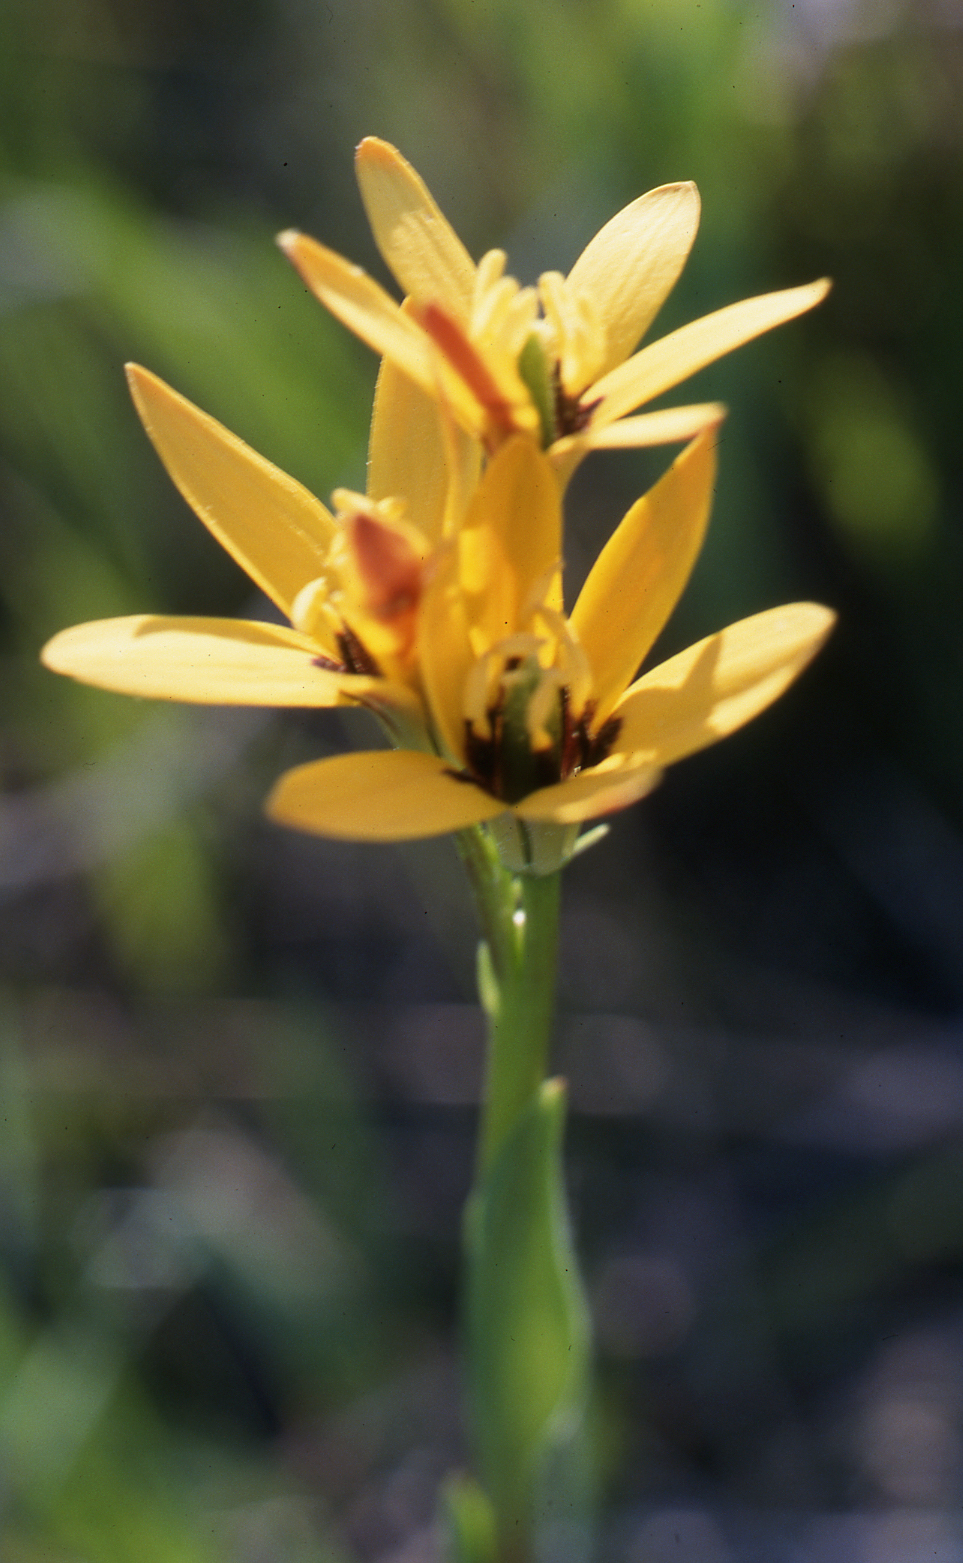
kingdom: Plantae
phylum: Tracheophyta
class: Liliopsida
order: Liliales
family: Colchicaceae
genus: Baeometra
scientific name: Baeometra uniflora
